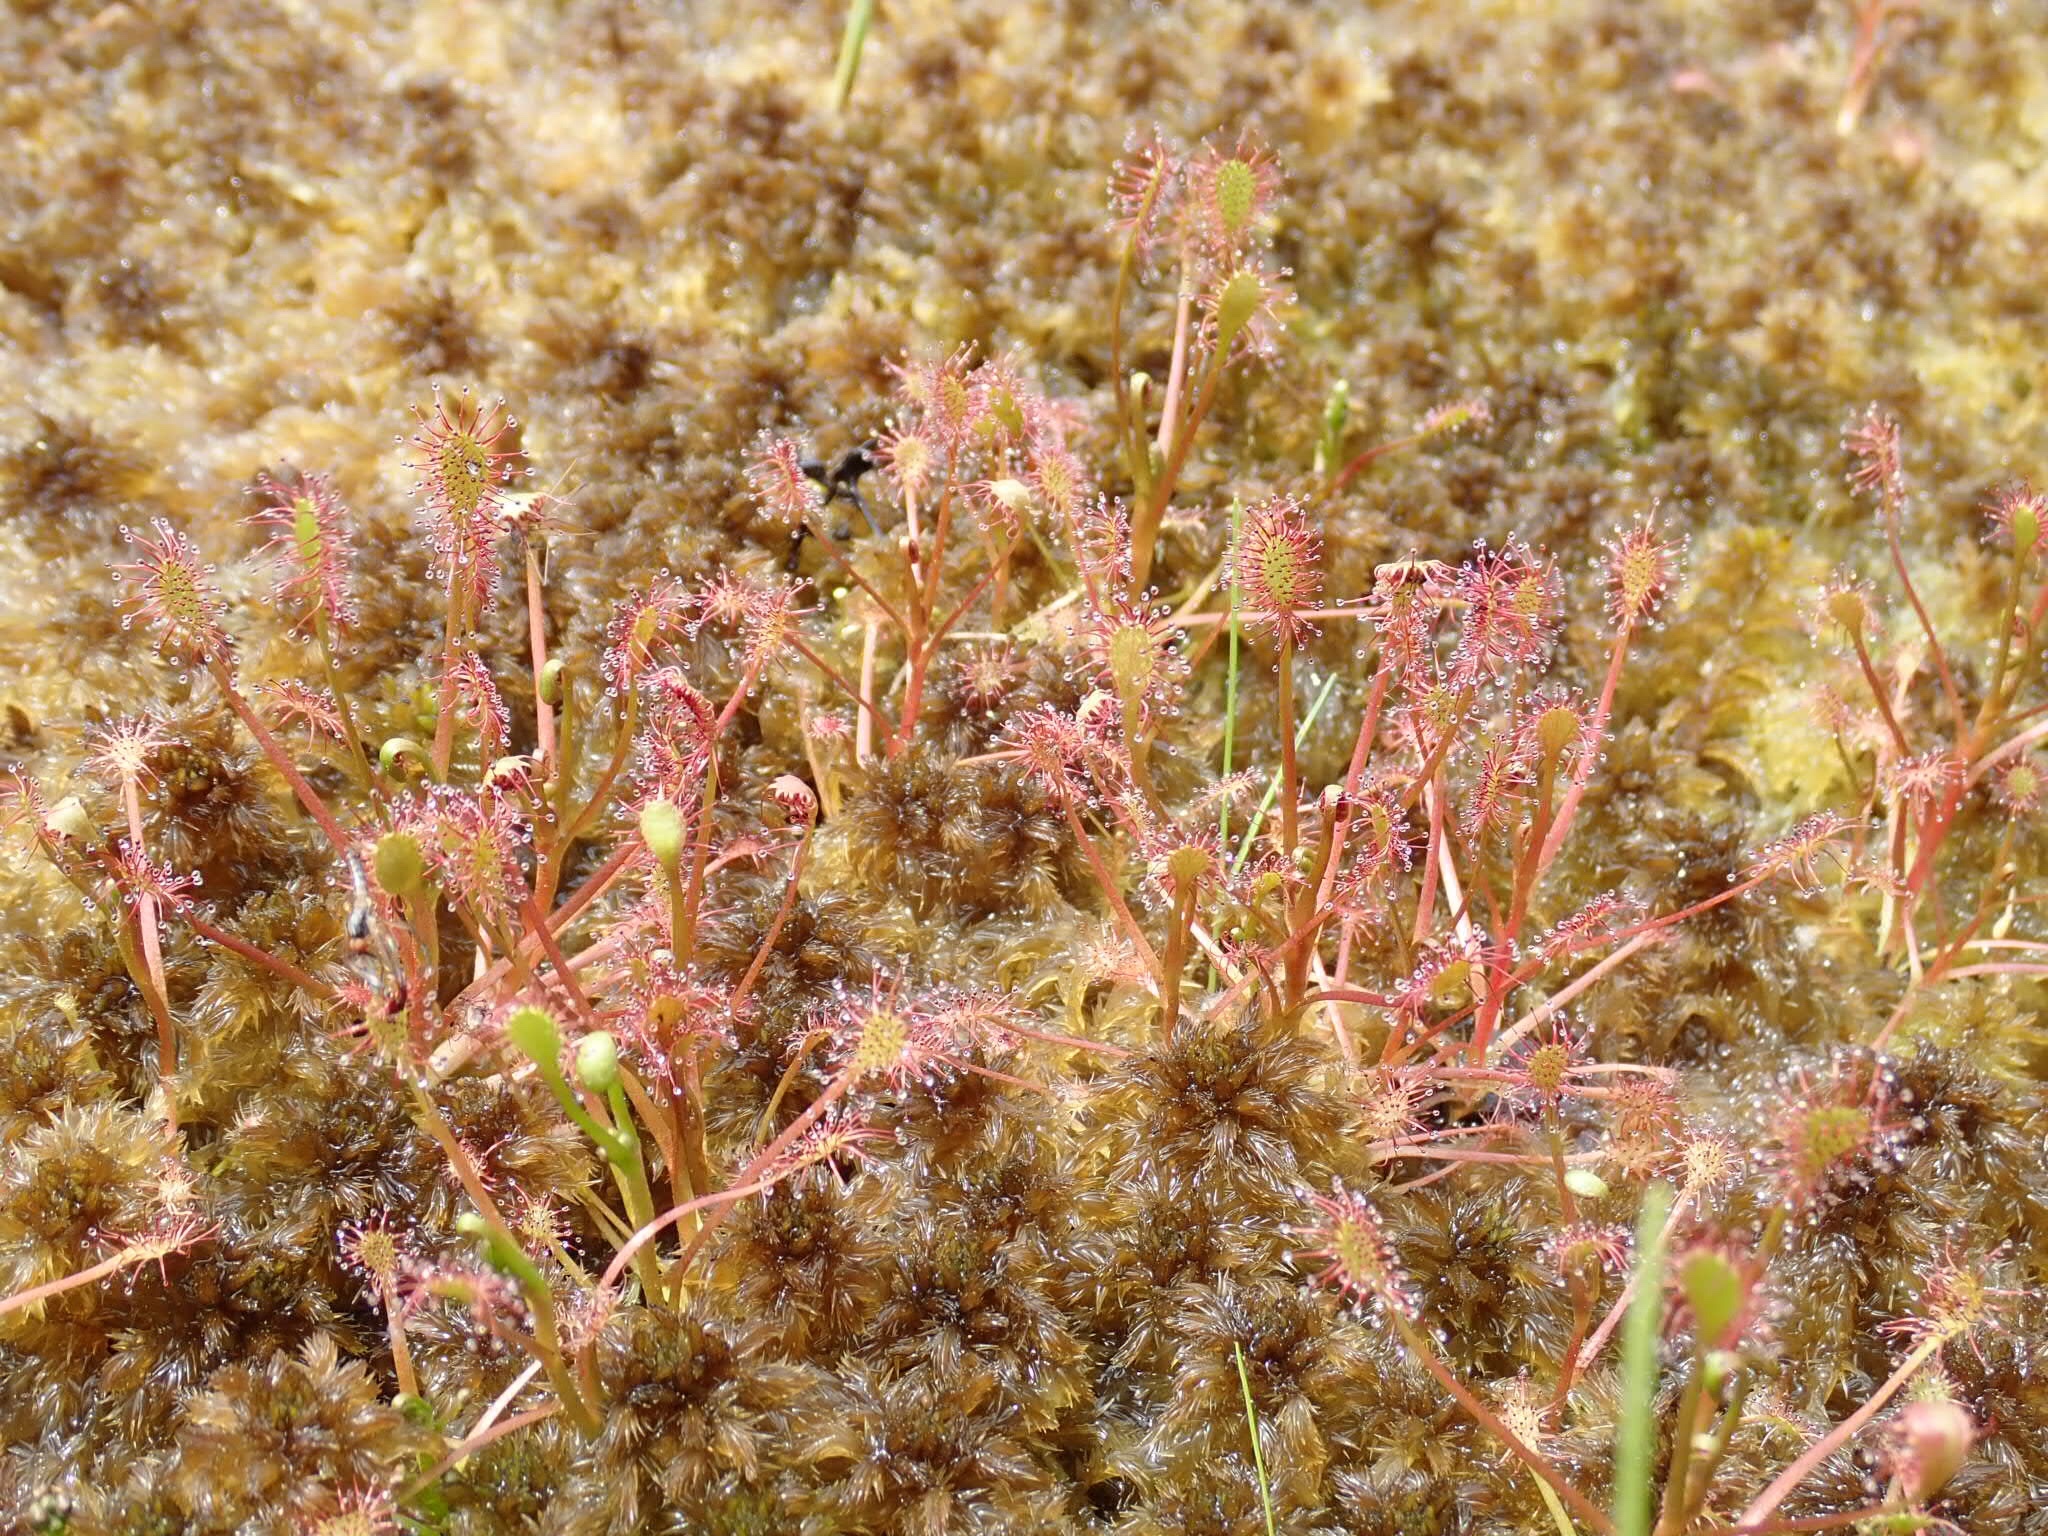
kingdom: Plantae
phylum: Tracheophyta
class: Magnoliopsida
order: Caryophyllales
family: Droseraceae
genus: Drosera
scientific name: Drosera intermedia
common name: Oblong-leaved sundew
